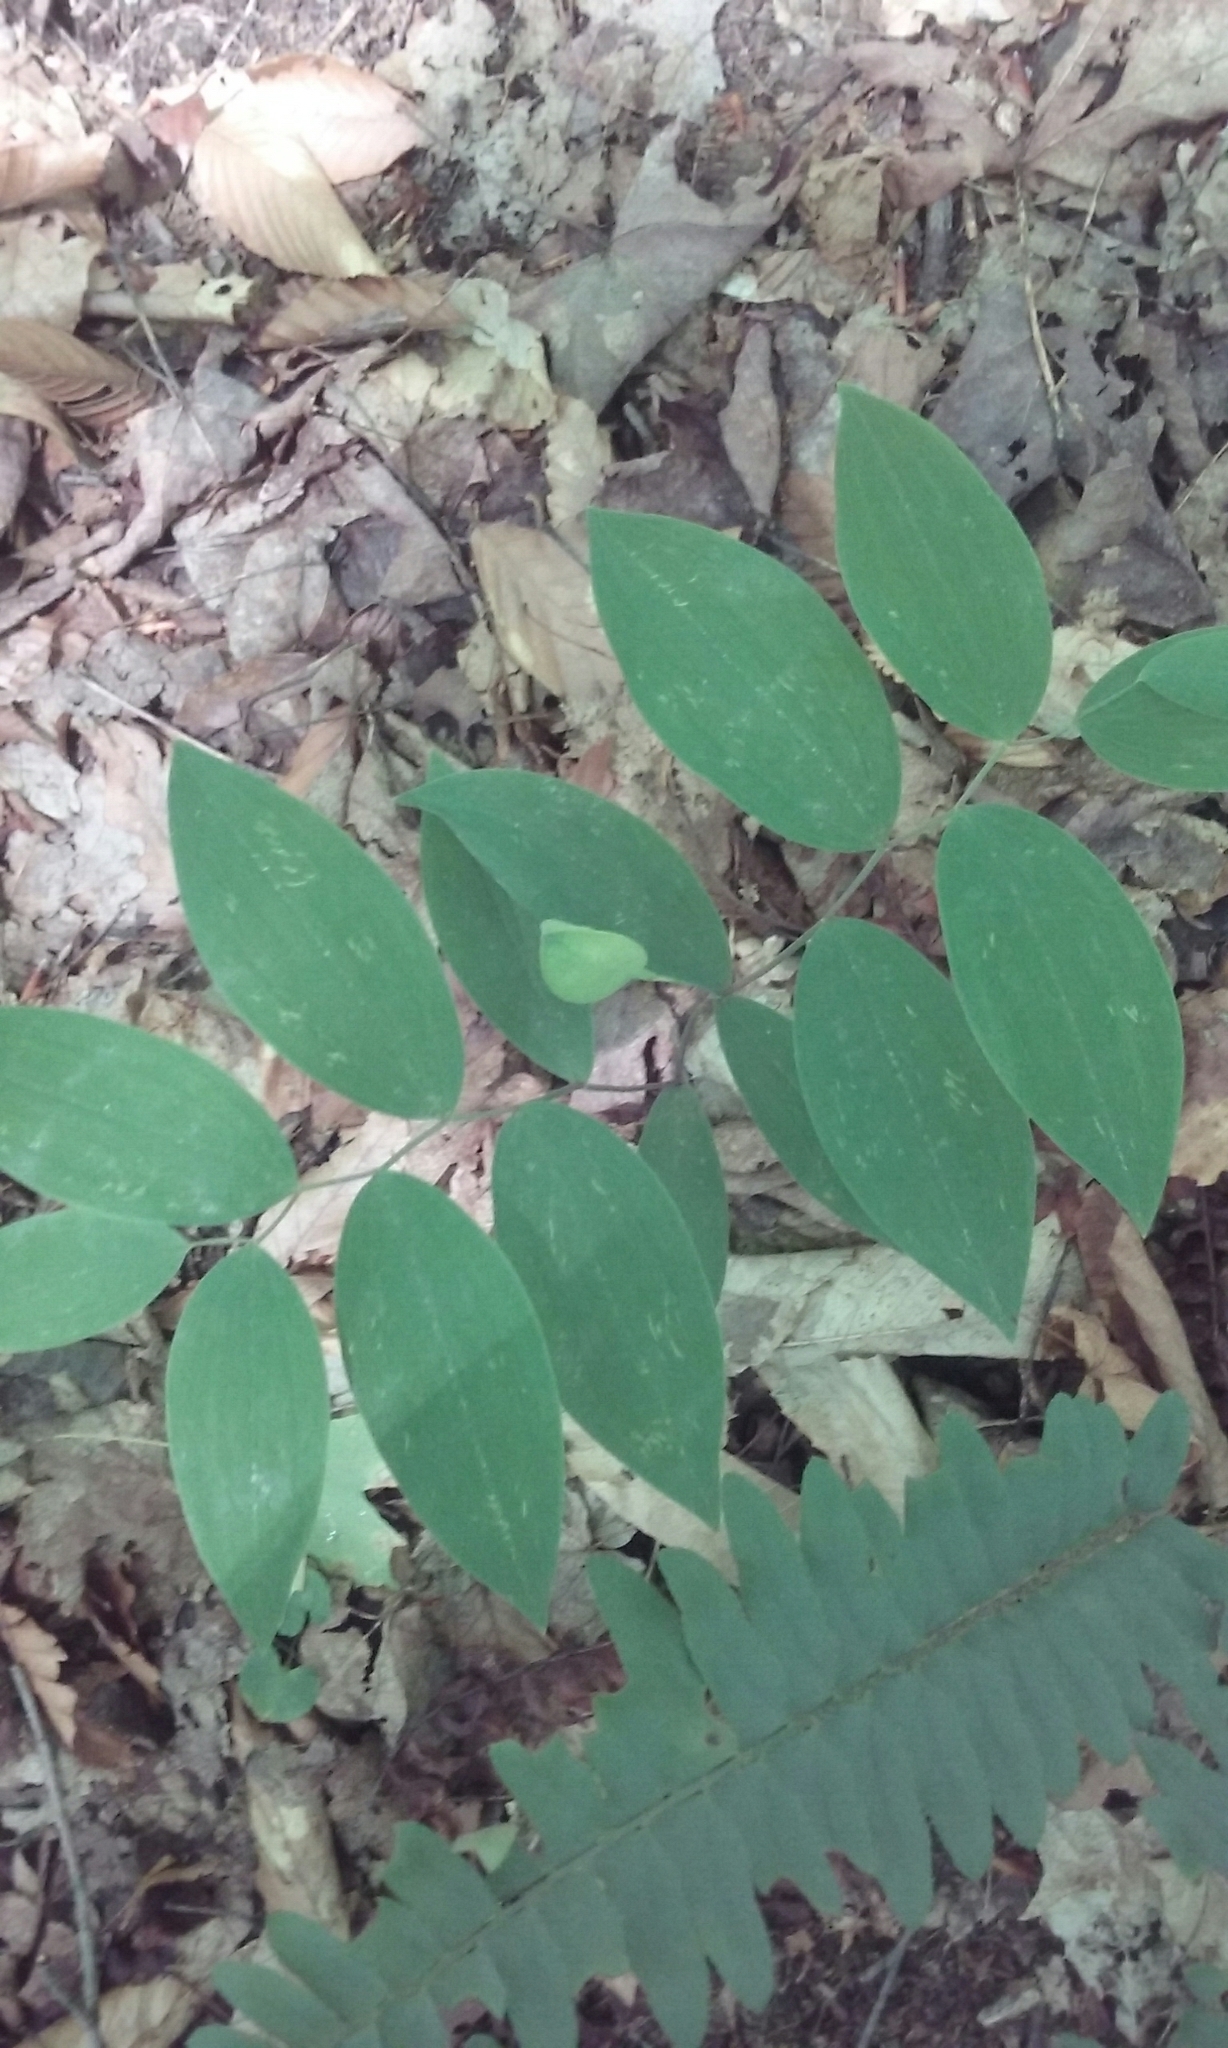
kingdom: Plantae
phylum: Tracheophyta
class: Liliopsida
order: Liliales
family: Colchicaceae
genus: Uvularia
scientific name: Uvularia sessilifolia
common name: Straw-lily
